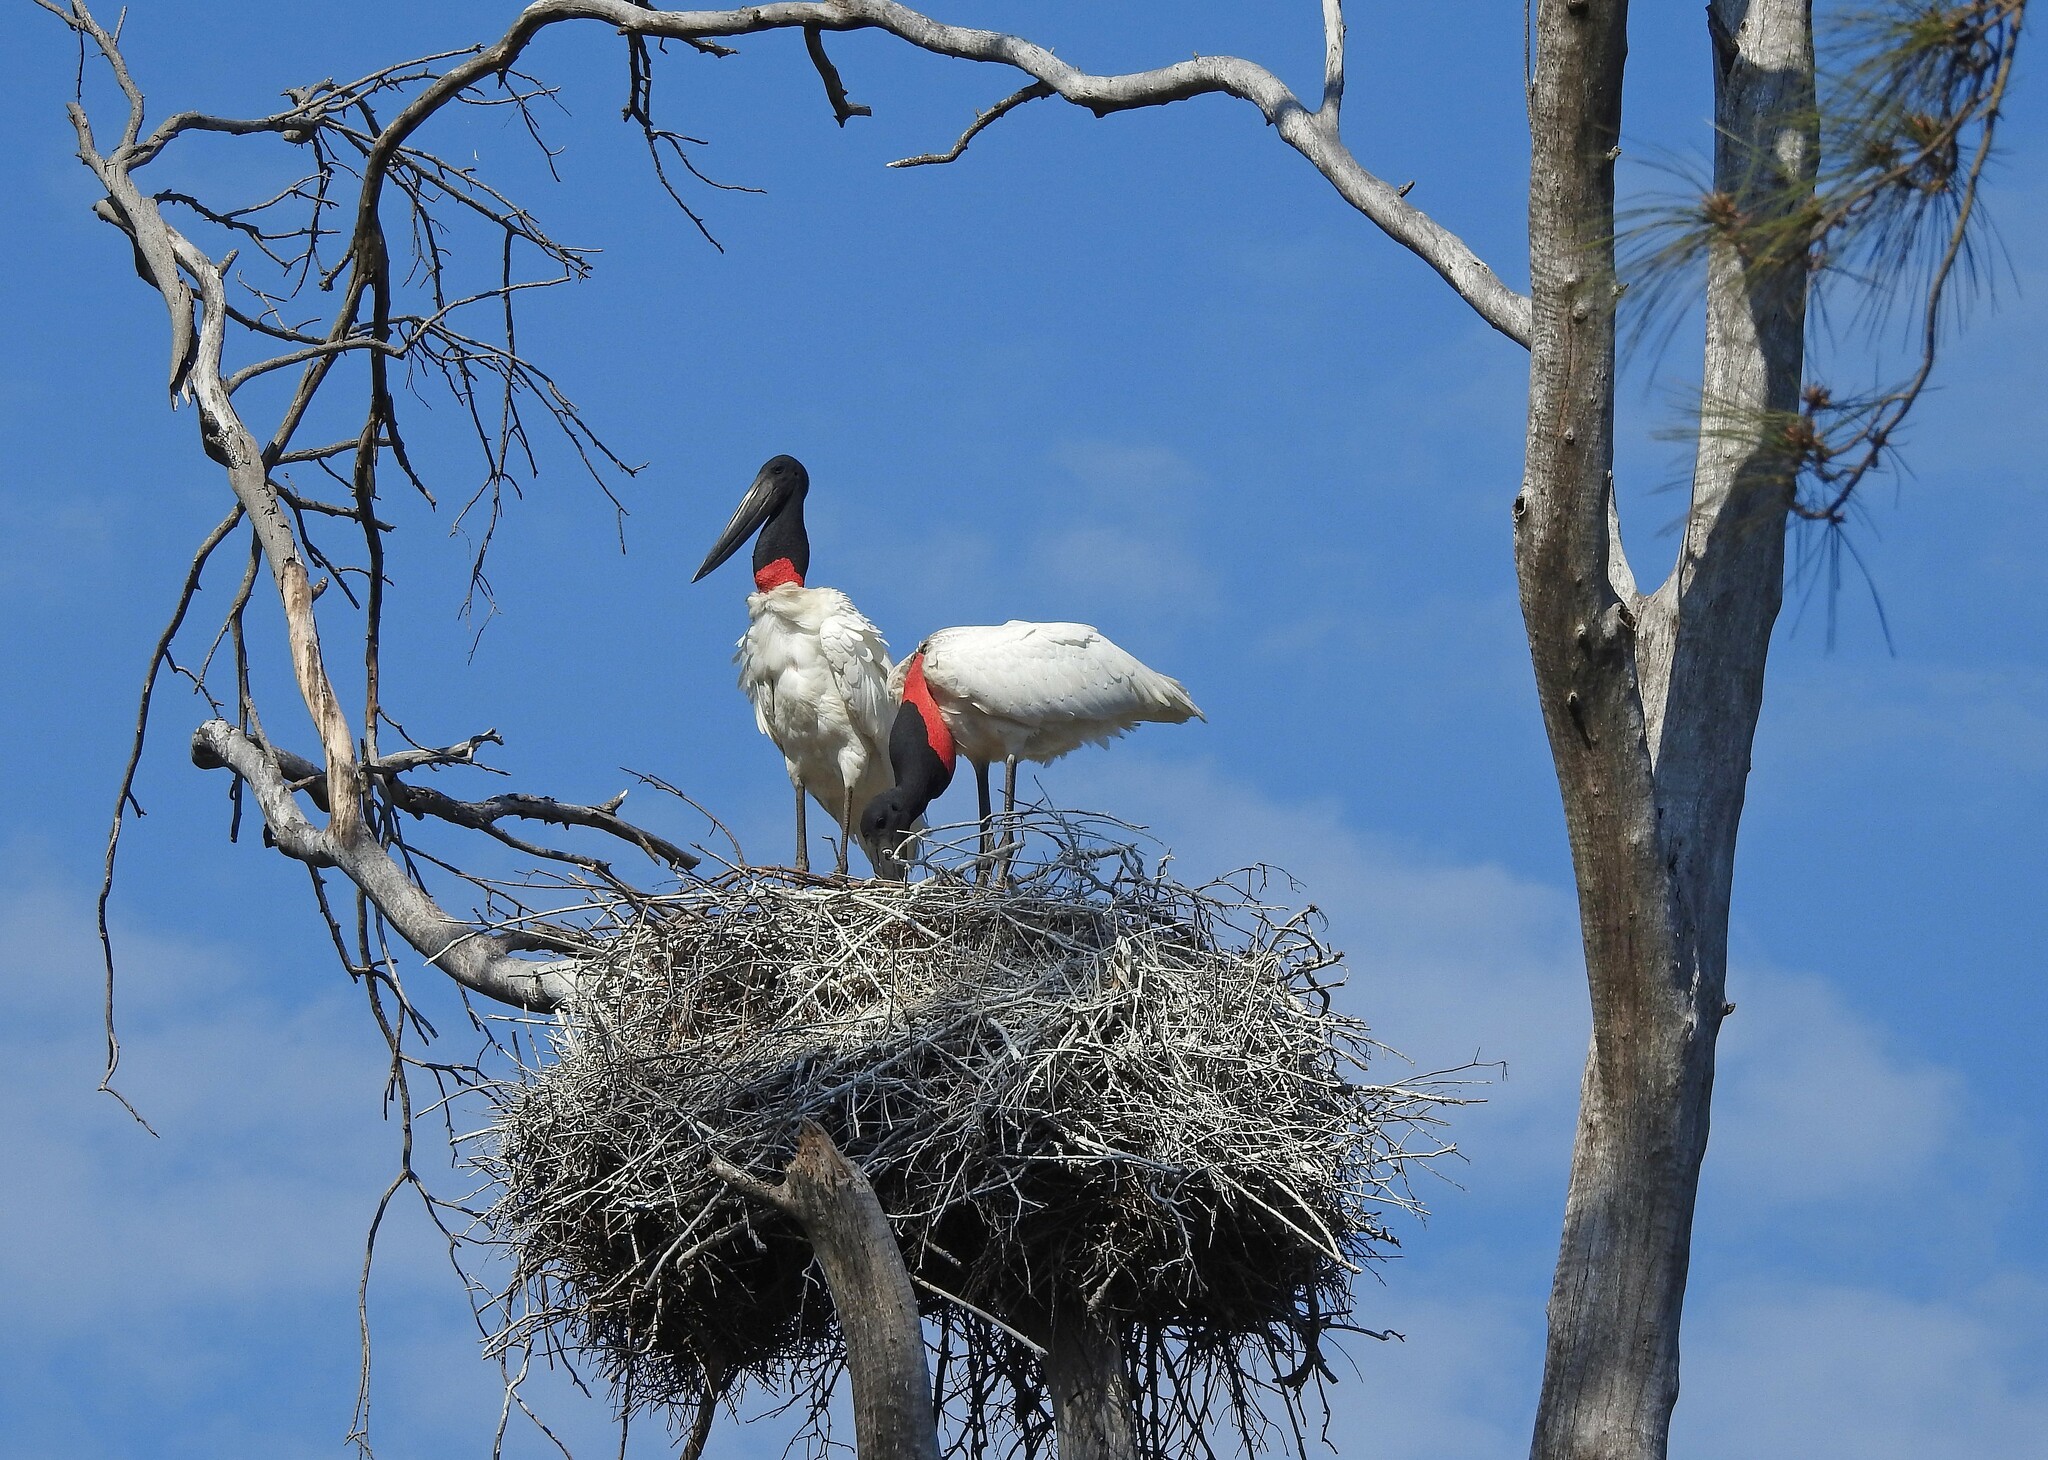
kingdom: Animalia
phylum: Chordata
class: Aves
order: Ciconiiformes
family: Ciconiidae
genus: Jabiru
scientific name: Jabiru mycteria
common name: Jabiru
